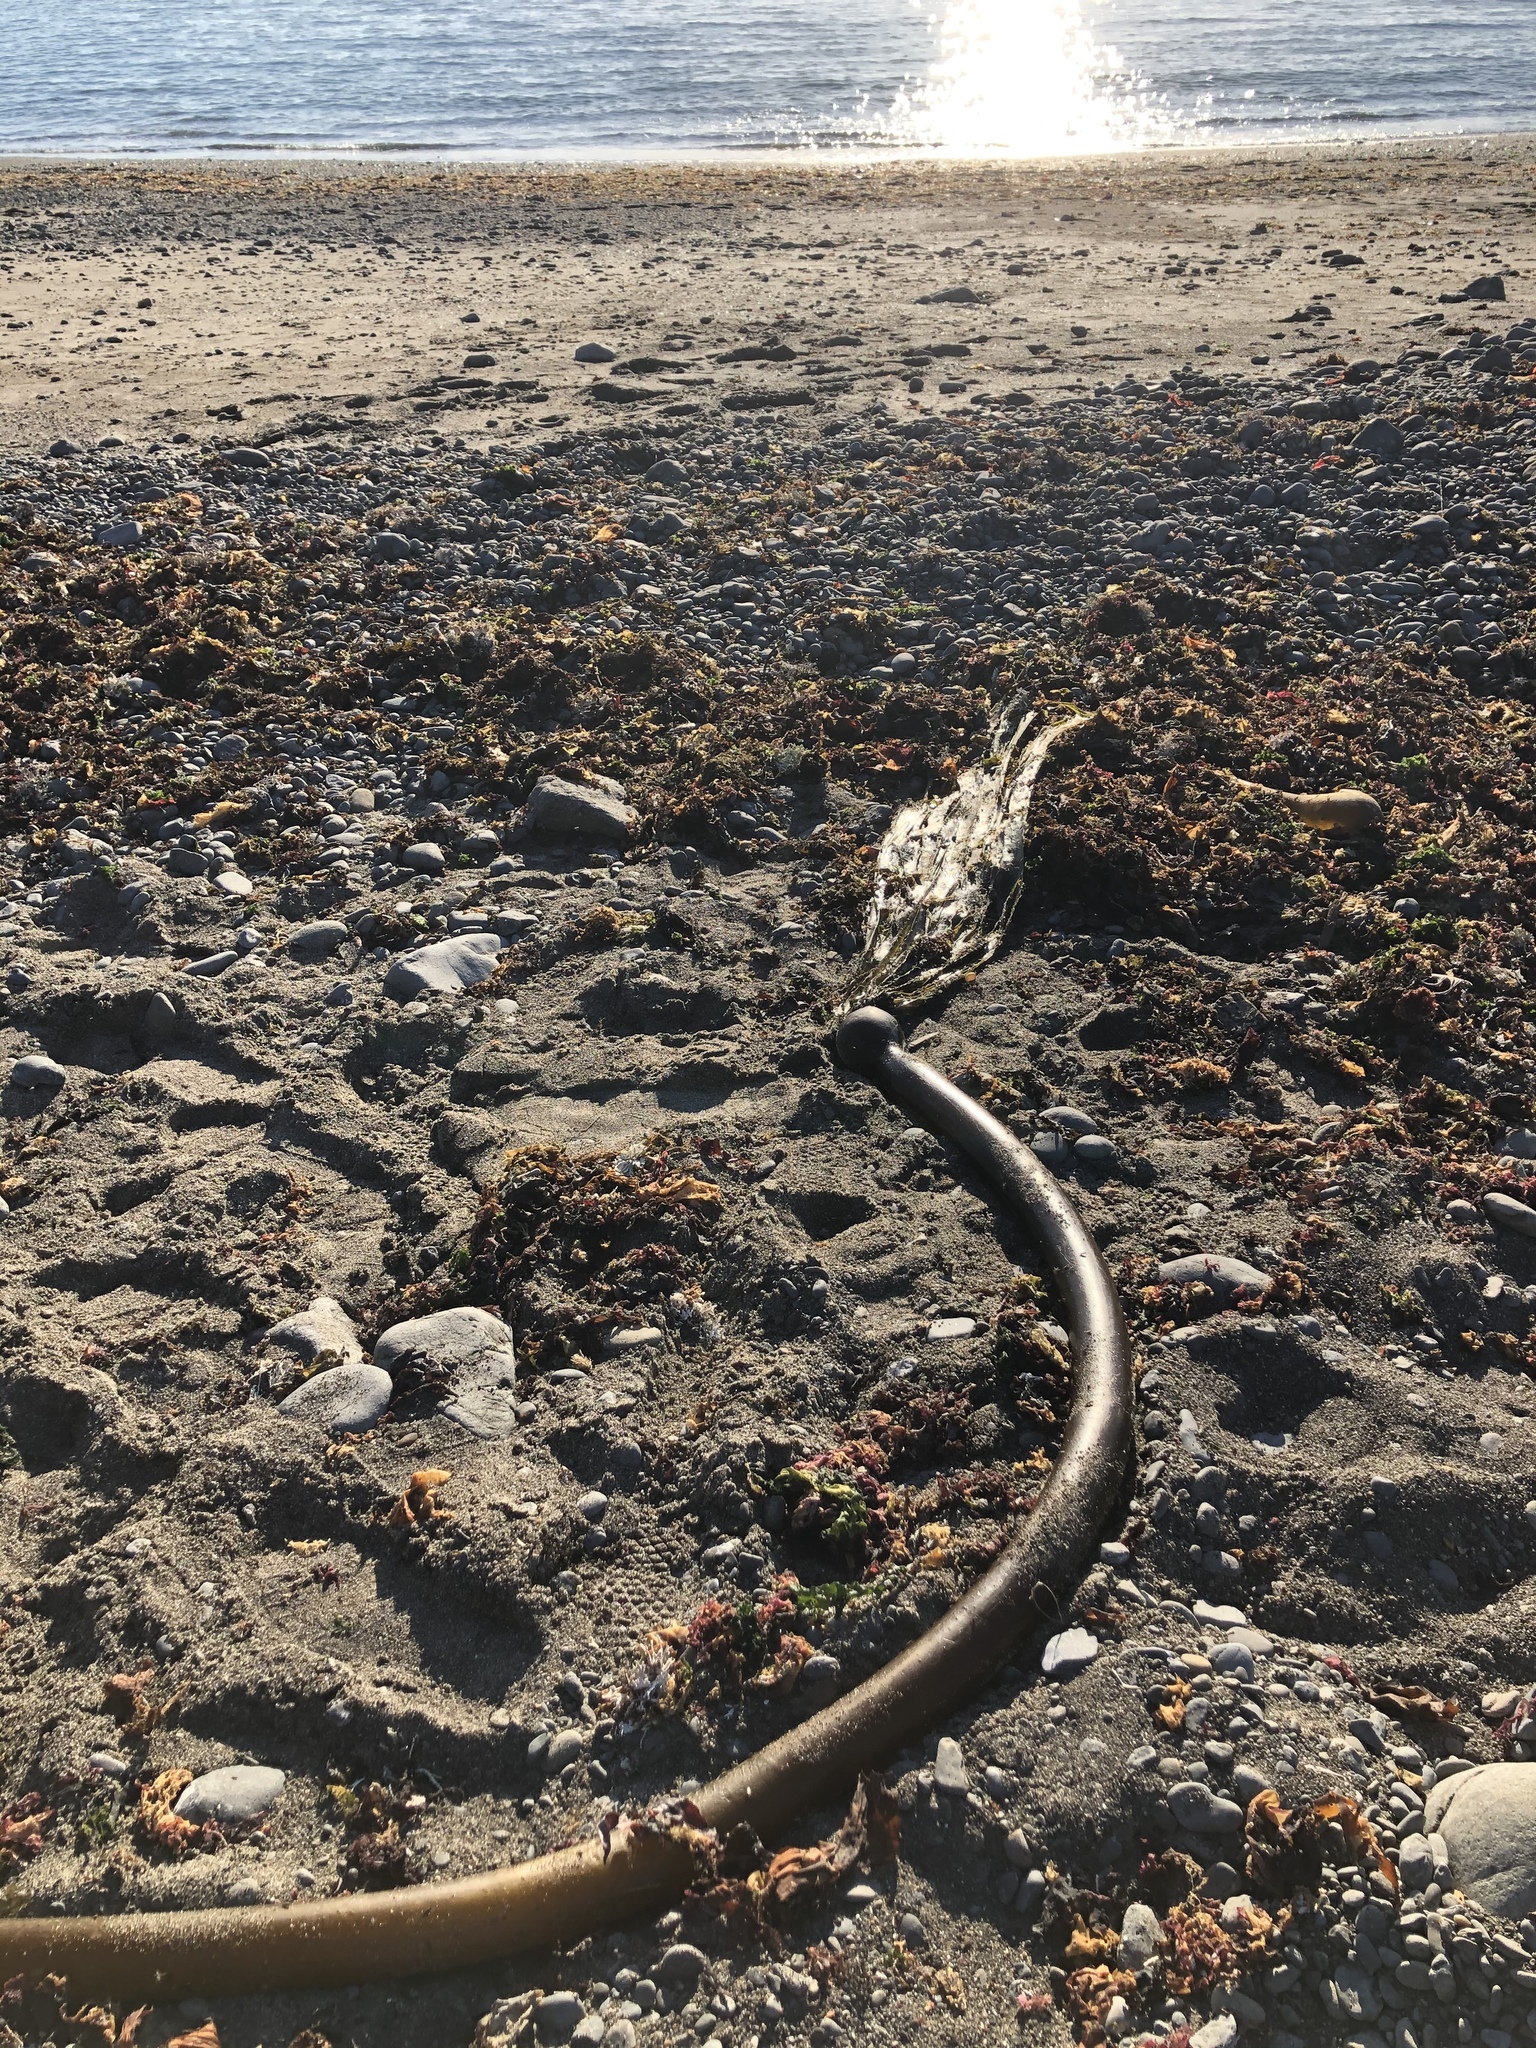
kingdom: Chromista
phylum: Ochrophyta
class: Phaeophyceae
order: Laminariales
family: Laminariaceae
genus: Nereocystis
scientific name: Nereocystis luetkeana
